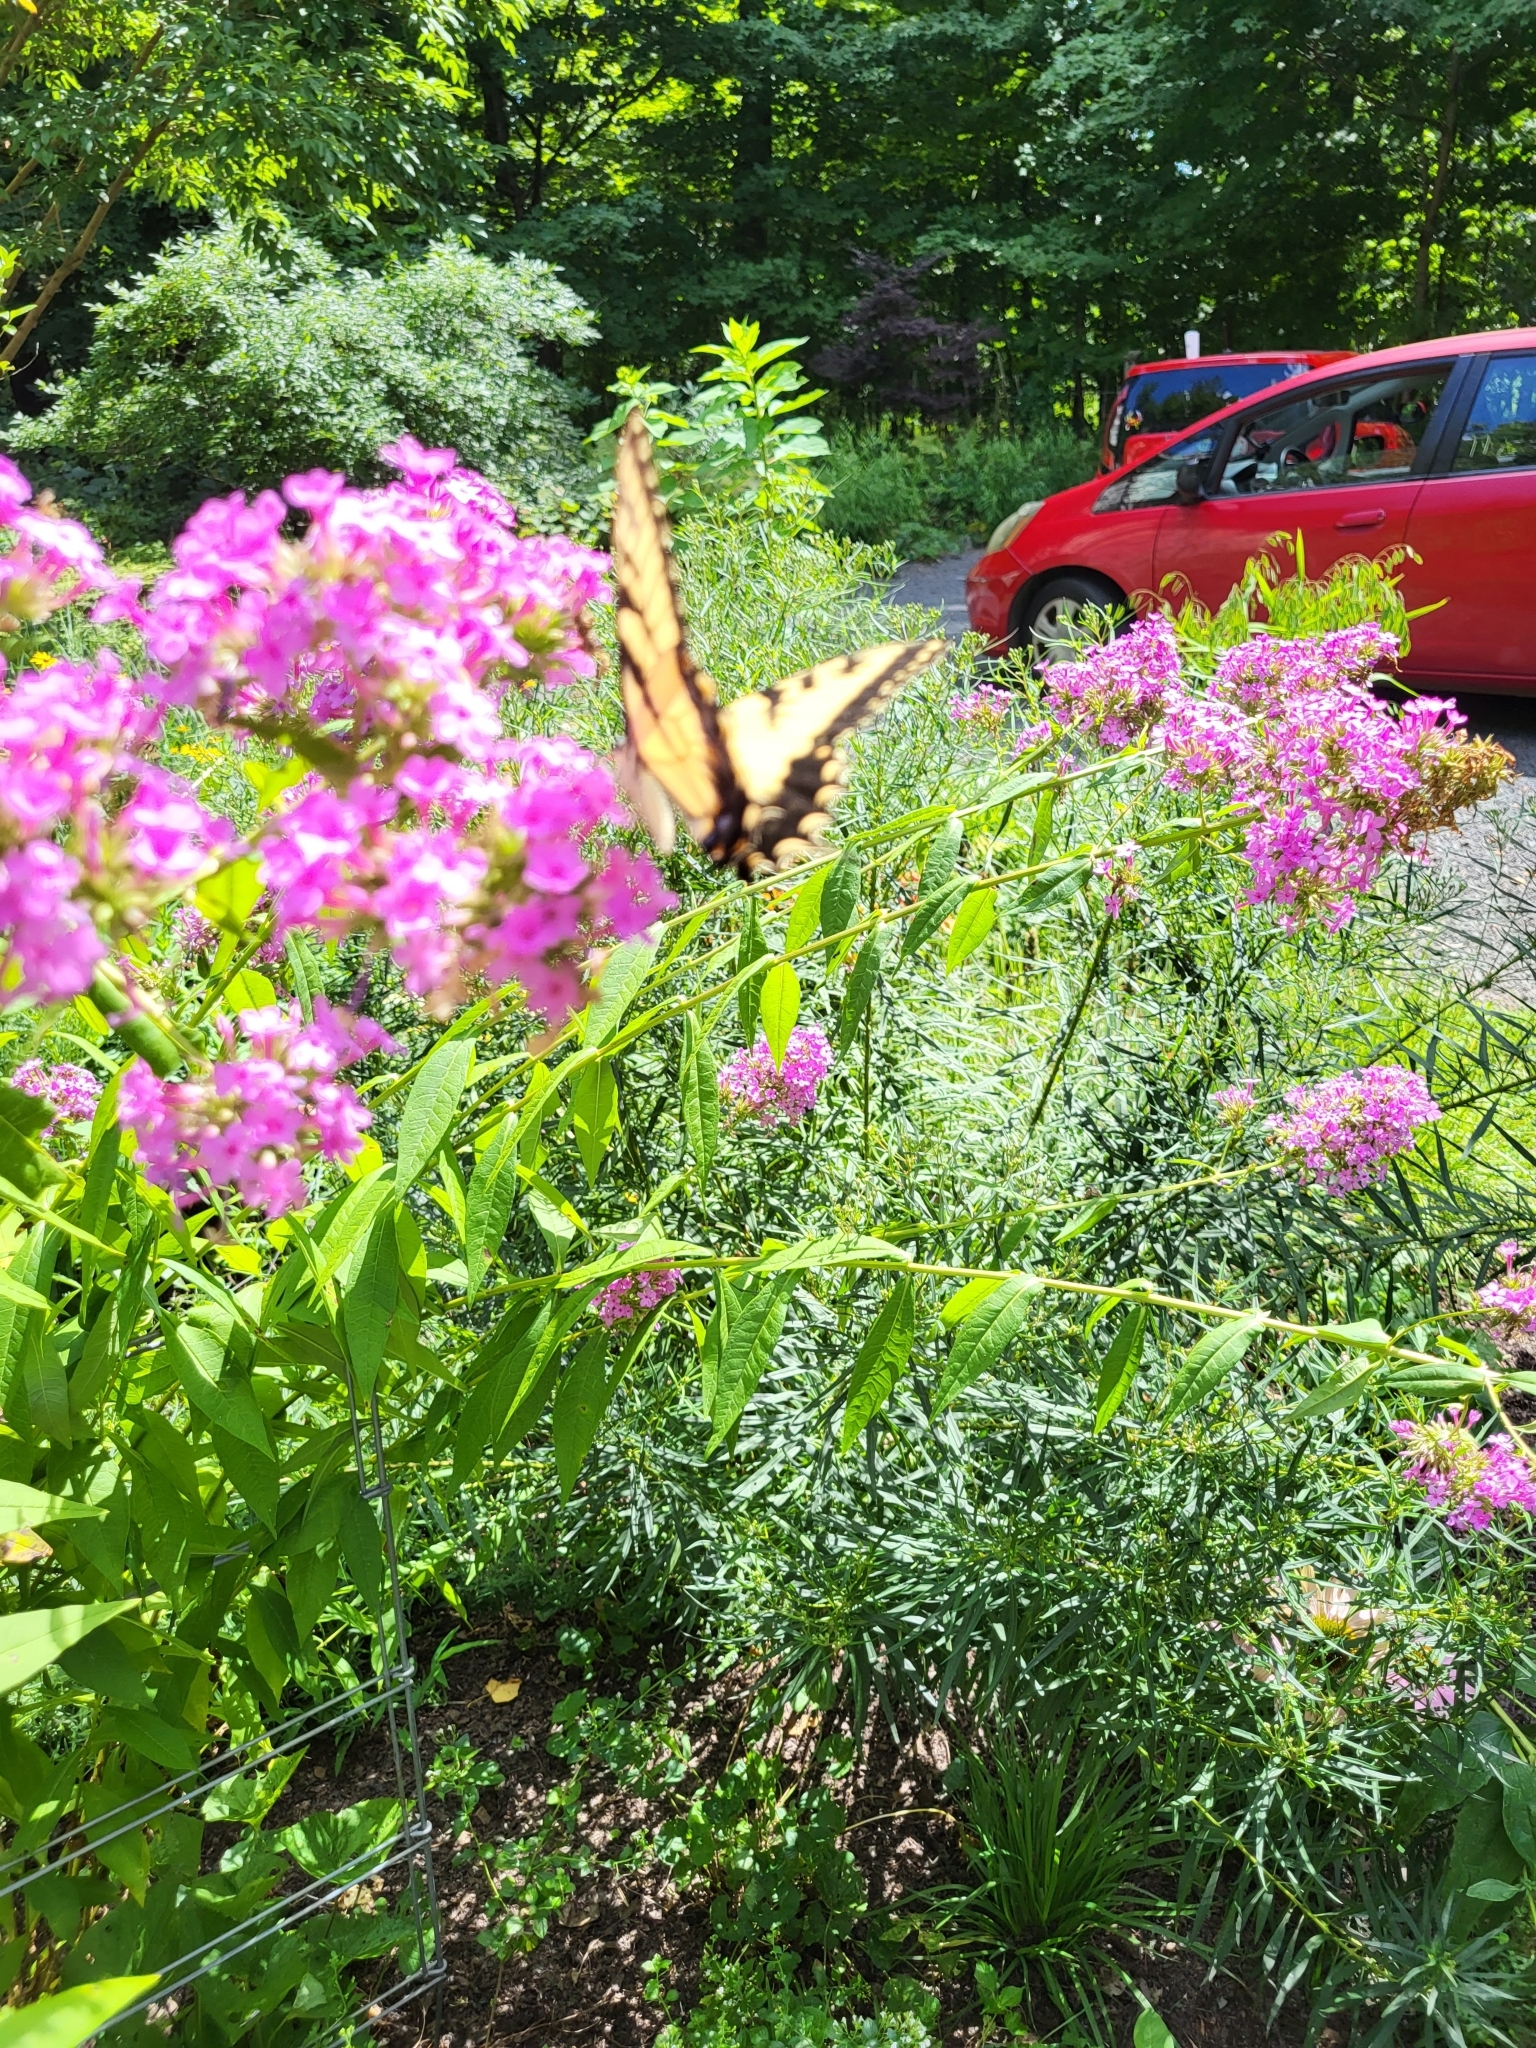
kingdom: Animalia
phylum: Arthropoda
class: Insecta
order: Lepidoptera
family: Papilionidae
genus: Papilio
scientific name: Papilio glaucus
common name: Tiger swallowtail
